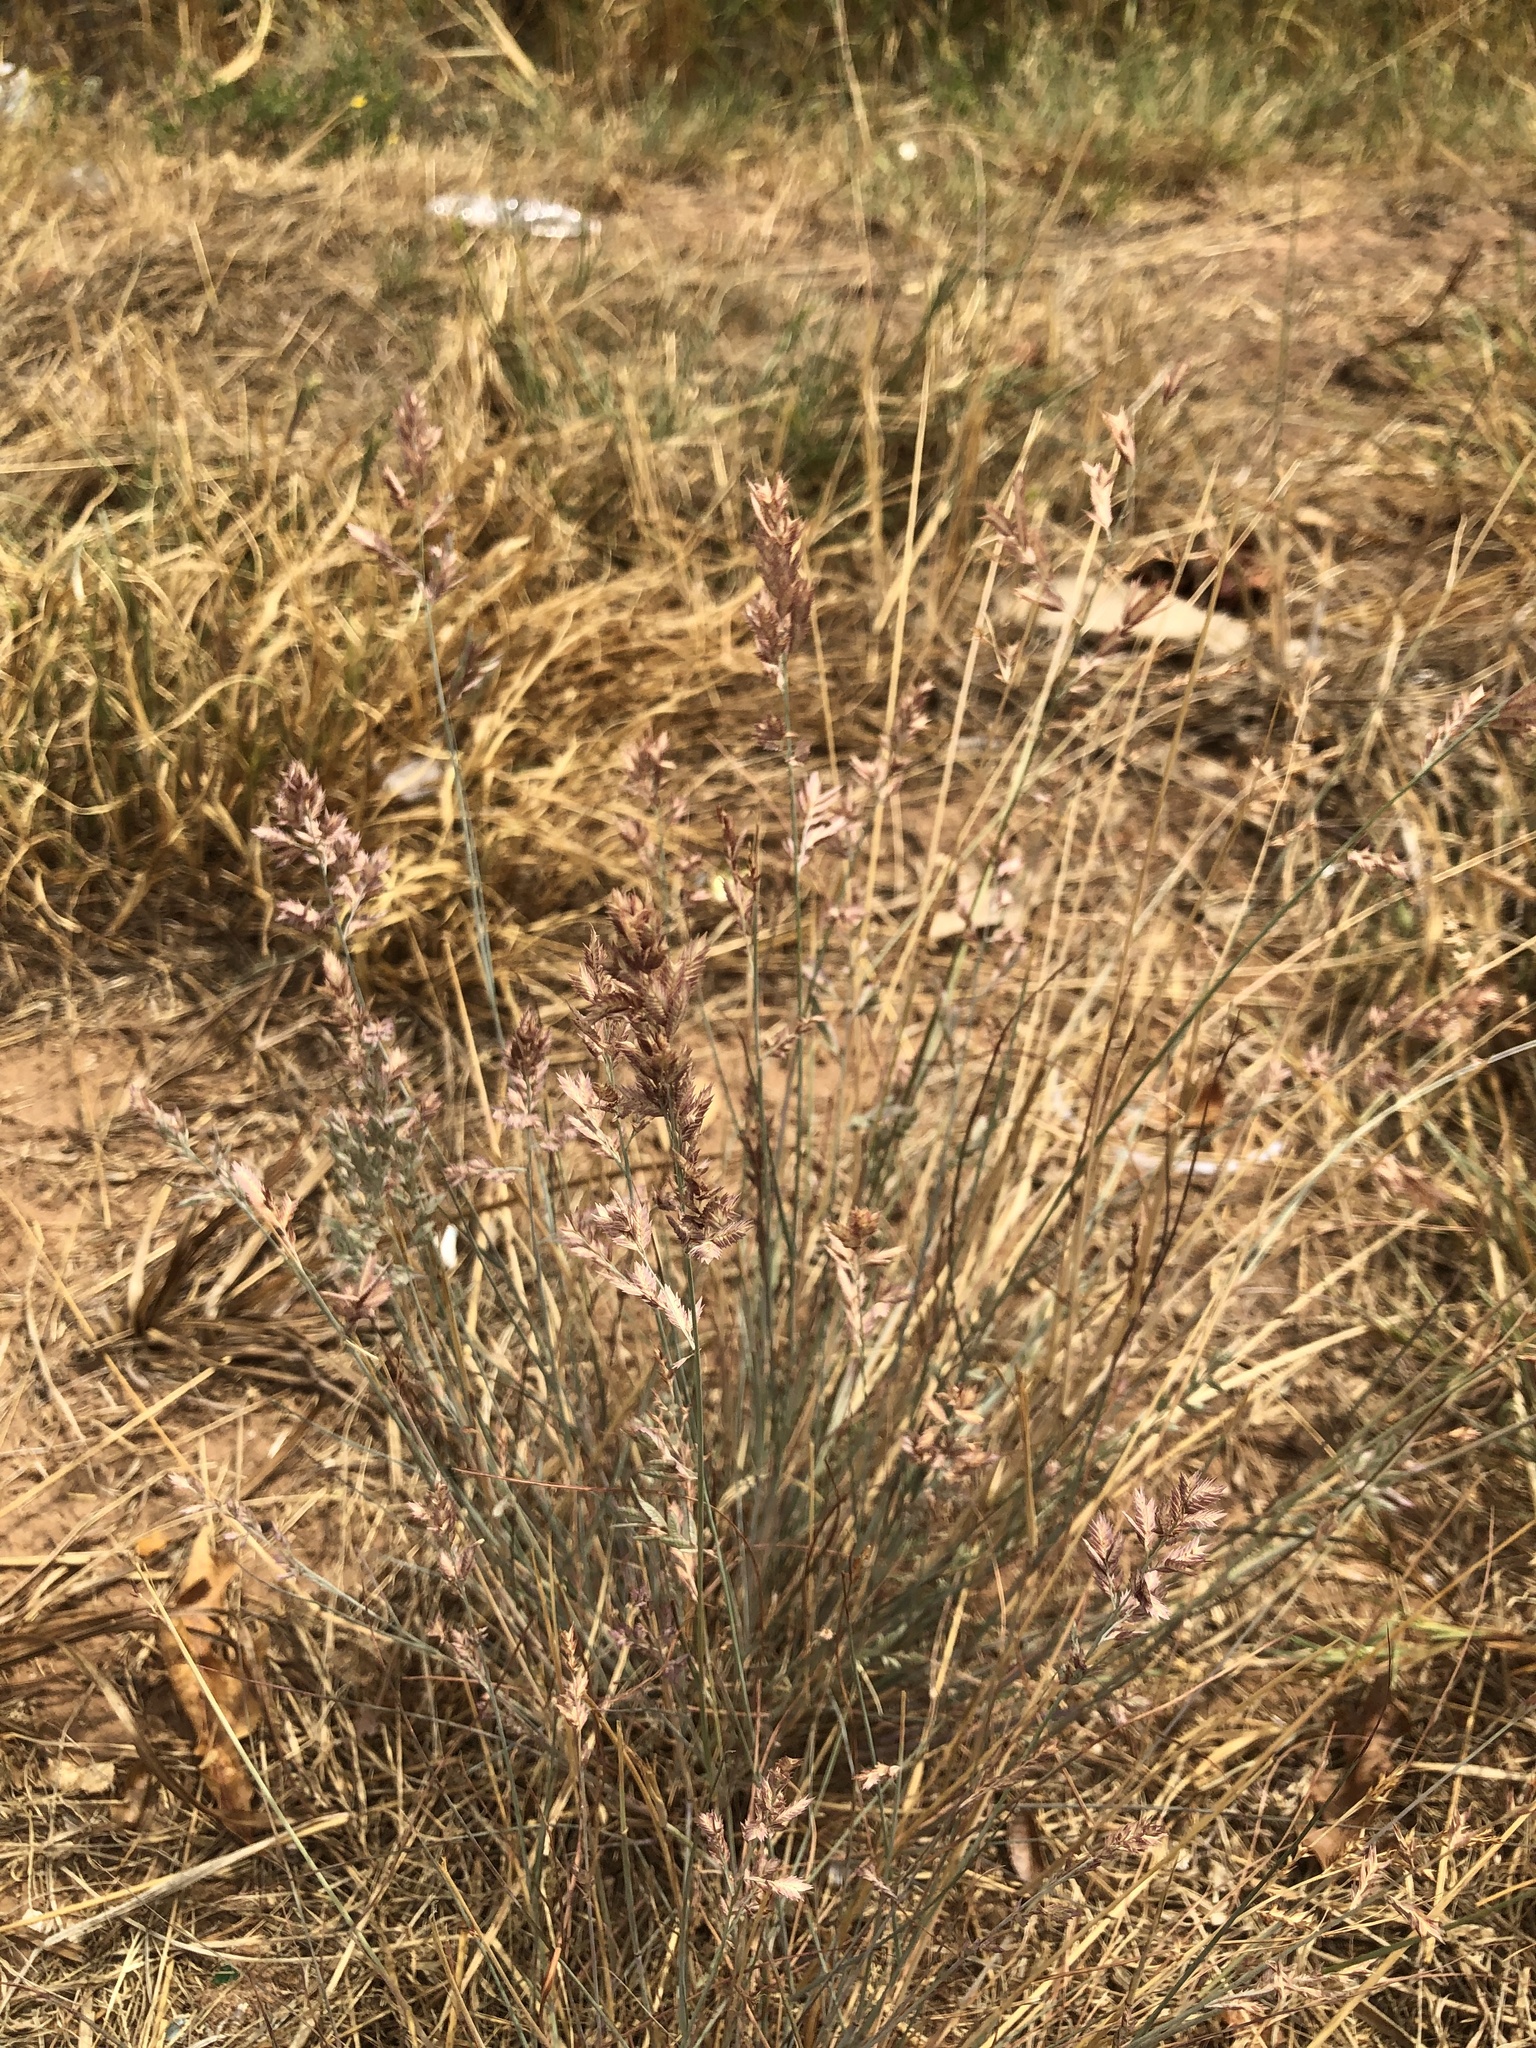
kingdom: Plantae
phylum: Tracheophyta
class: Liliopsida
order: Poales
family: Poaceae
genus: Eragrostis
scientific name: Eragrostis secundiflora
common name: Red love grass
